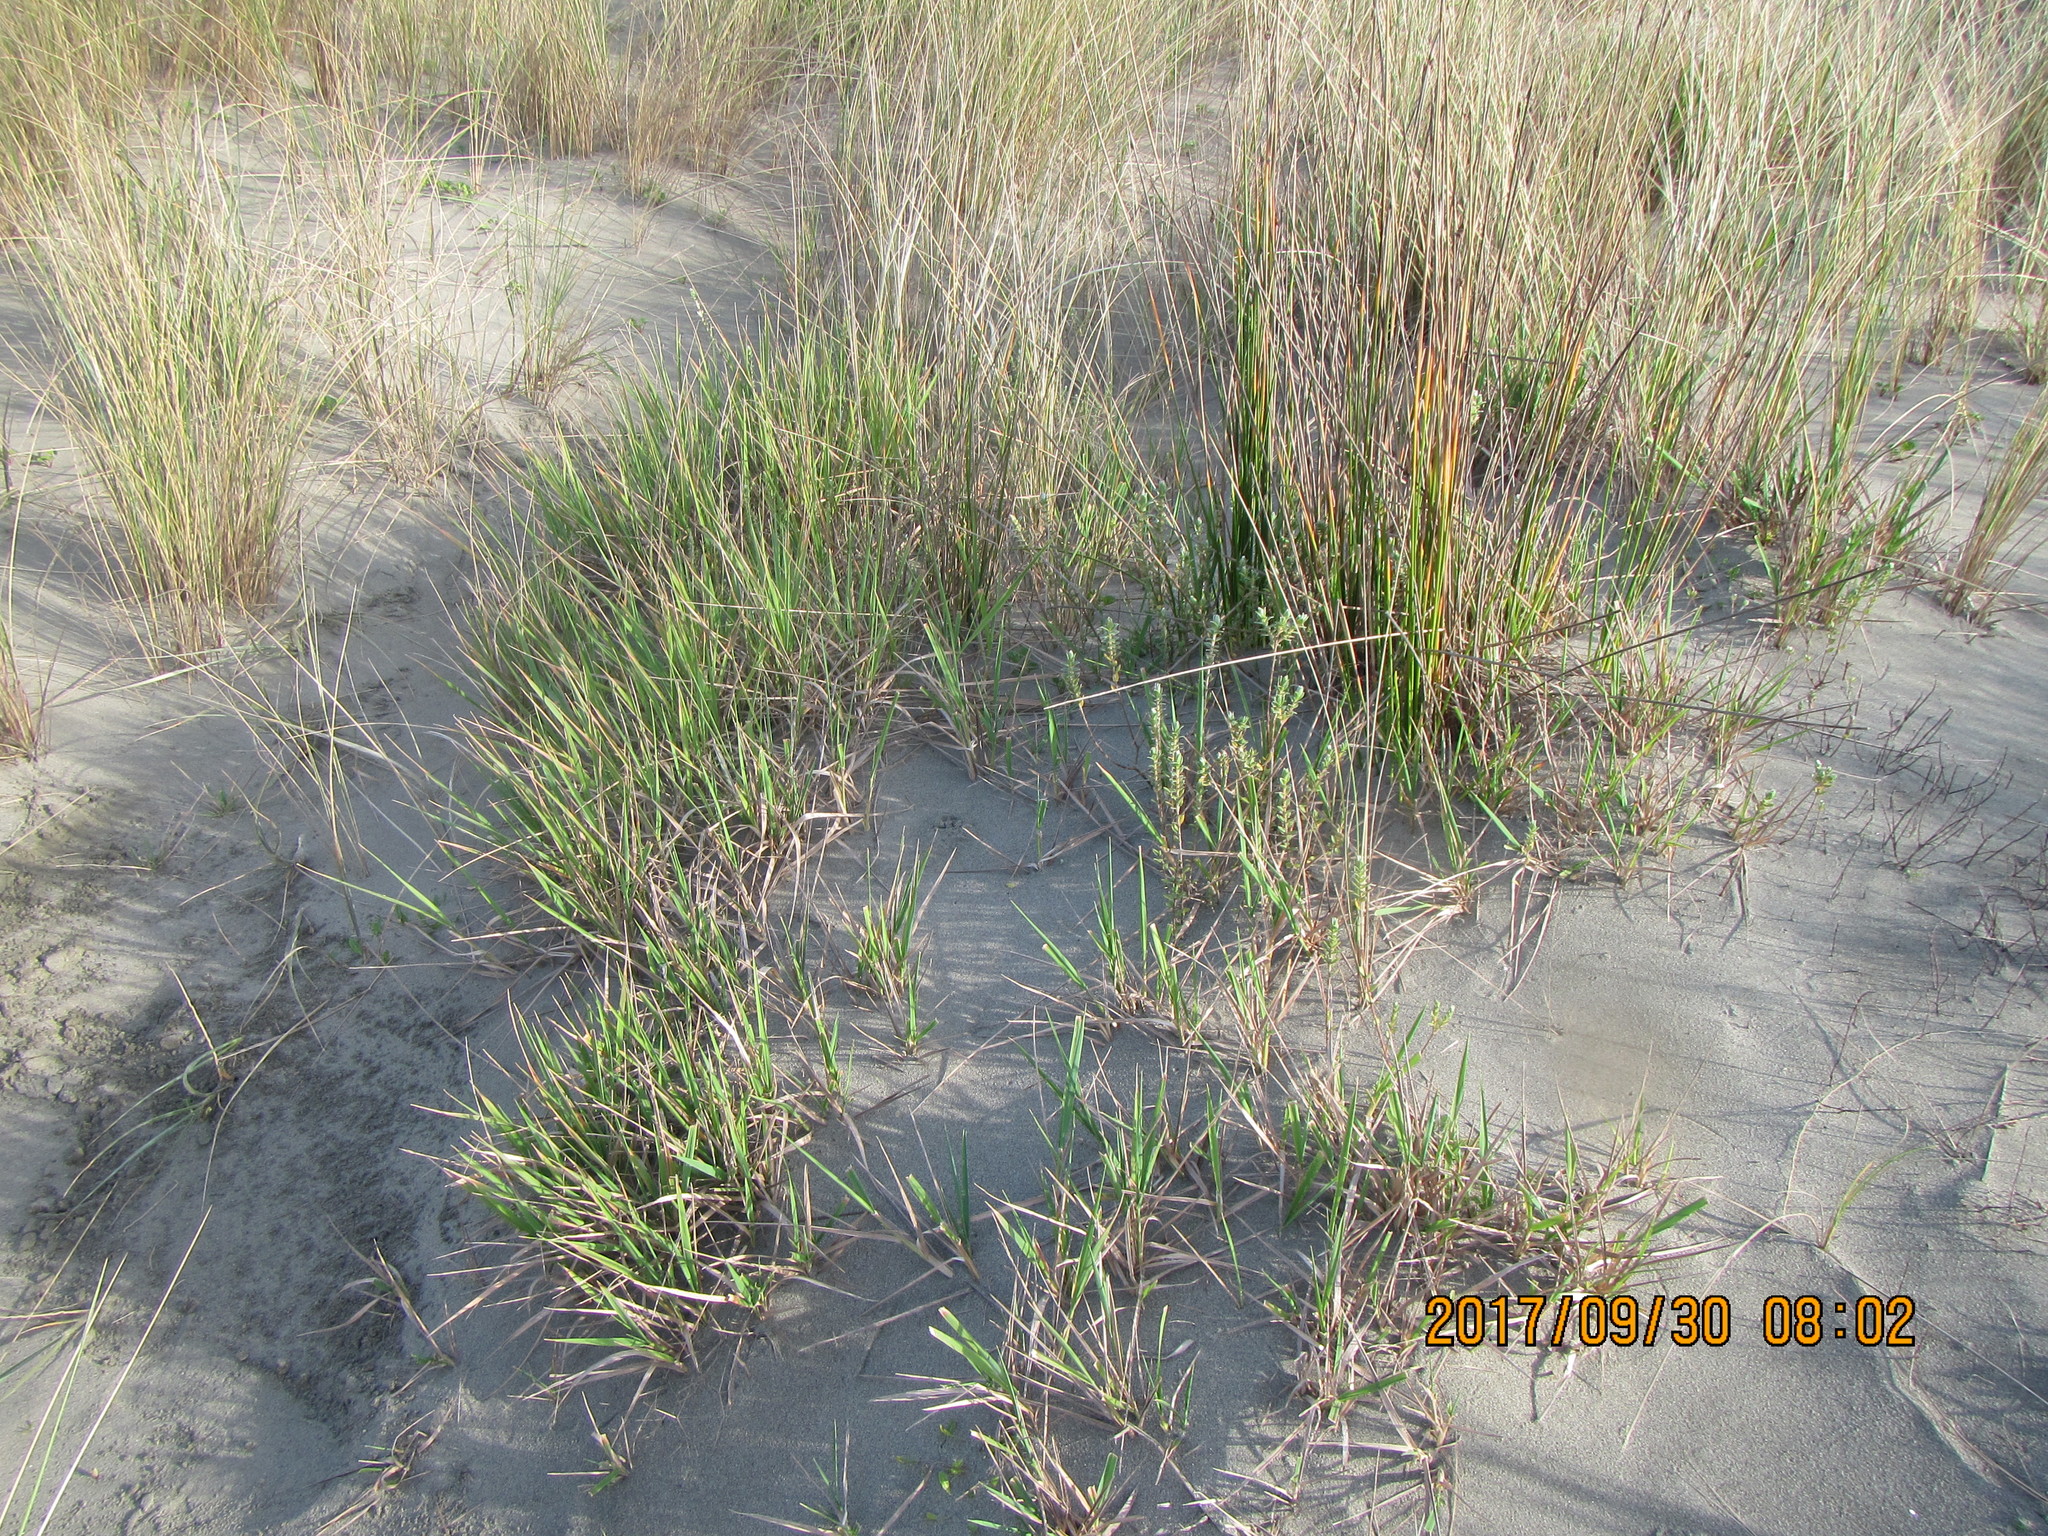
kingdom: Plantae
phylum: Tracheophyta
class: Liliopsida
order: Poales
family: Poaceae
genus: Lachnagrostis
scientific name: Lachnagrostis billardierei
